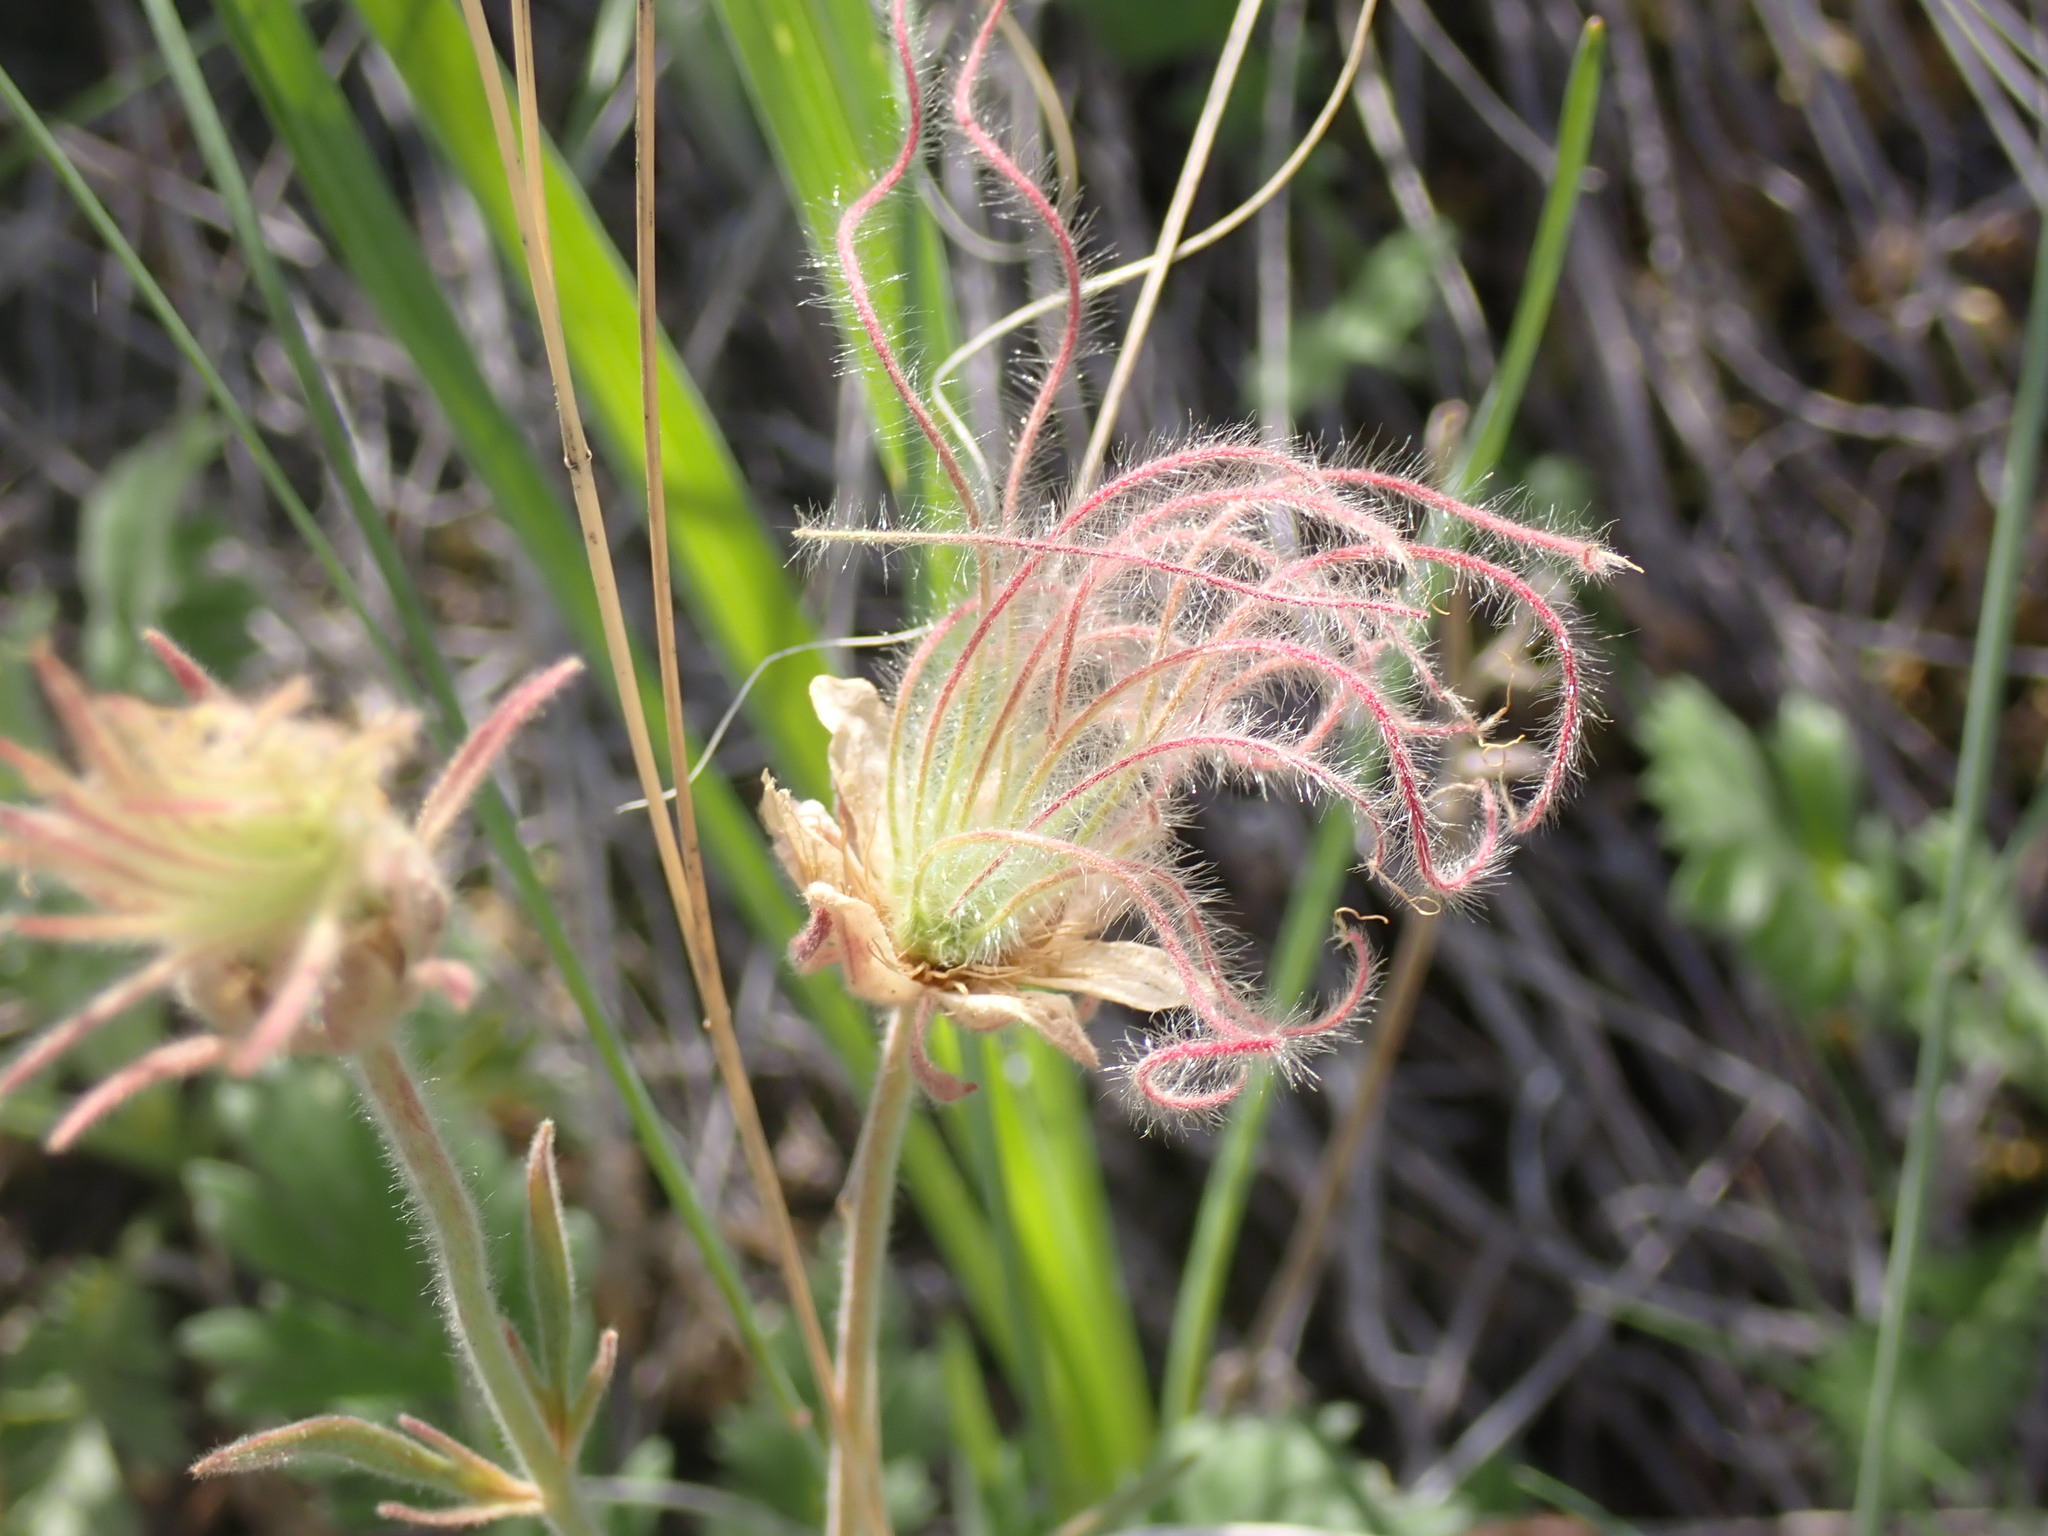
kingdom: Plantae
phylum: Tracheophyta
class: Magnoliopsida
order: Rosales
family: Rosaceae
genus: Geum
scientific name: Geum triflorum
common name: Old man's whiskers
